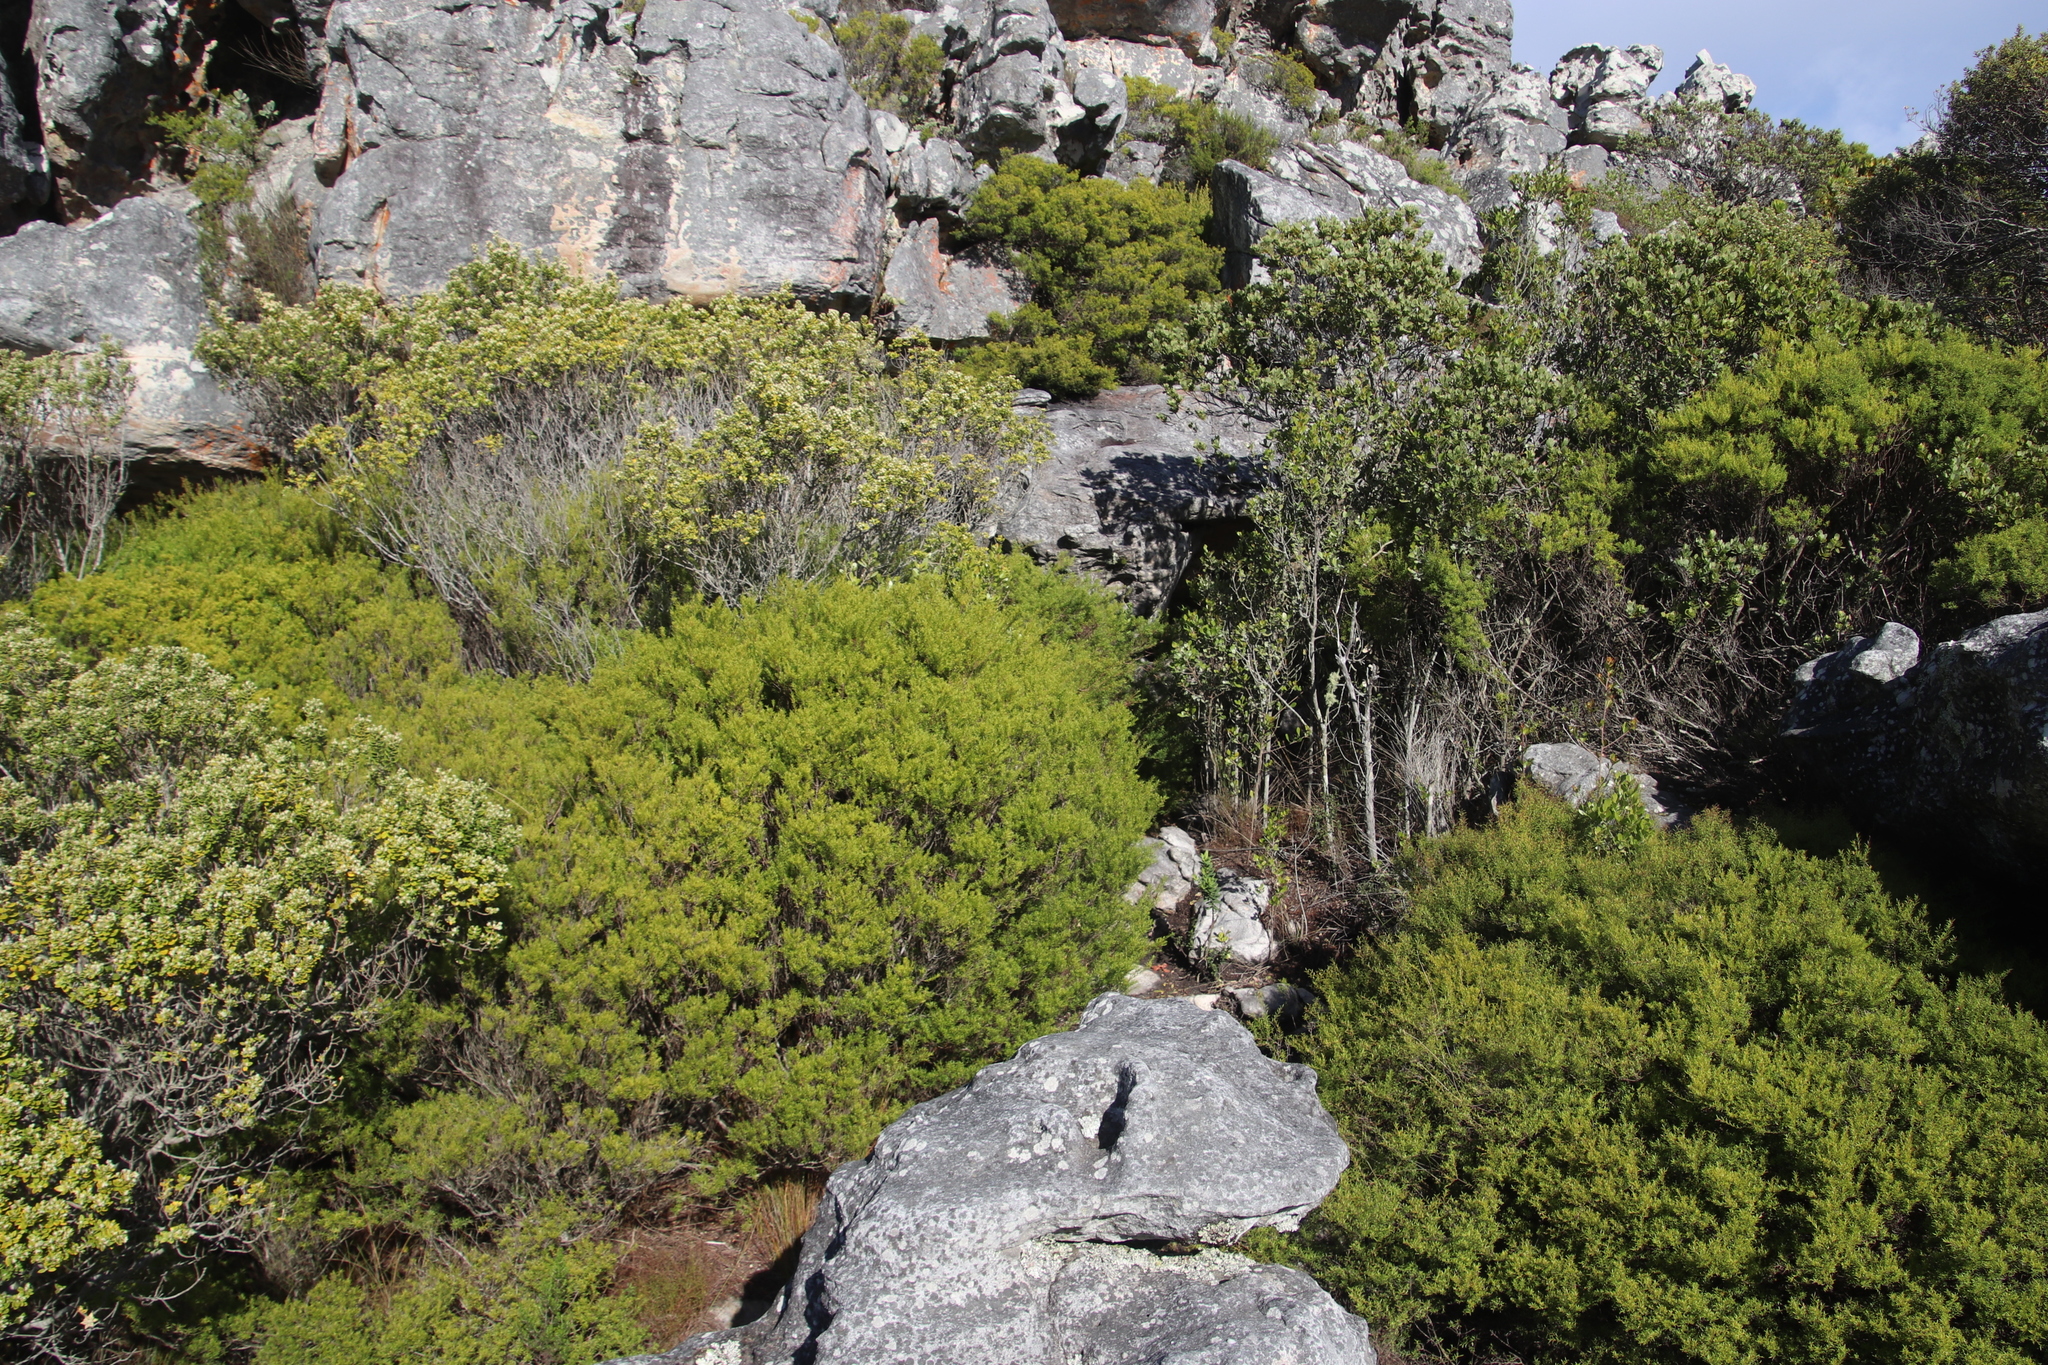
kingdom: Plantae
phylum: Tracheophyta
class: Magnoliopsida
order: Sapindales
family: Rutaceae
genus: Coleonema
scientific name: Coleonema album
